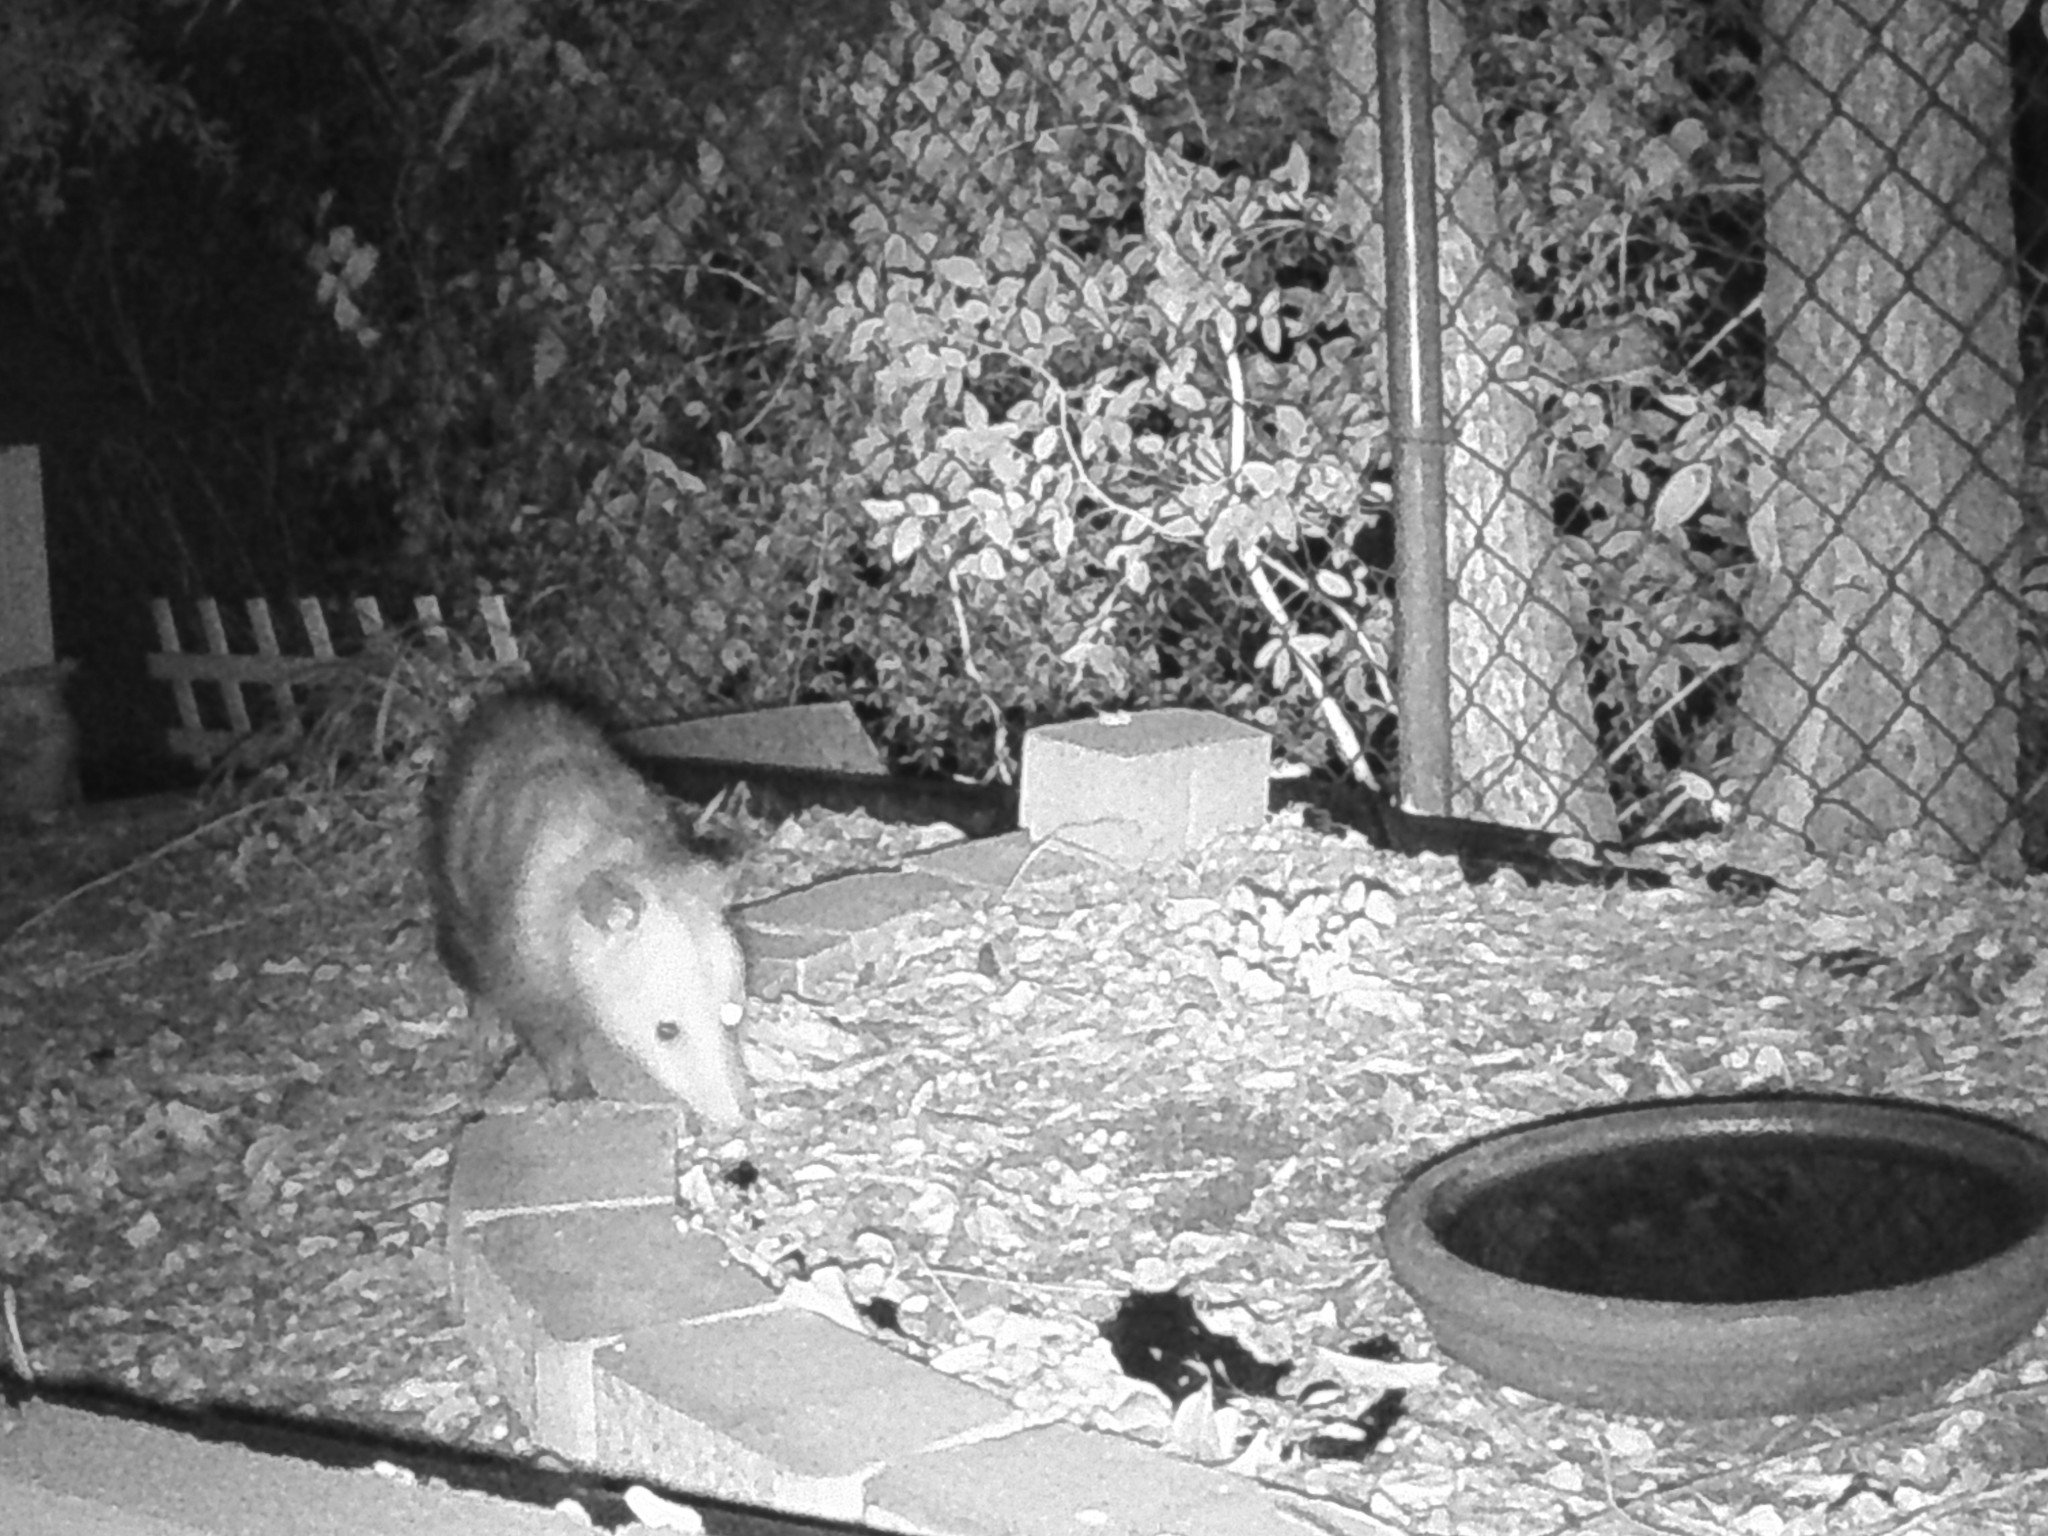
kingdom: Animalia
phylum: Chordata
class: Mammalia
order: Didelphimorphia
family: Didelphidae
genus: Didelphis
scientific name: Didelphis virginiana
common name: Virginia opossum
